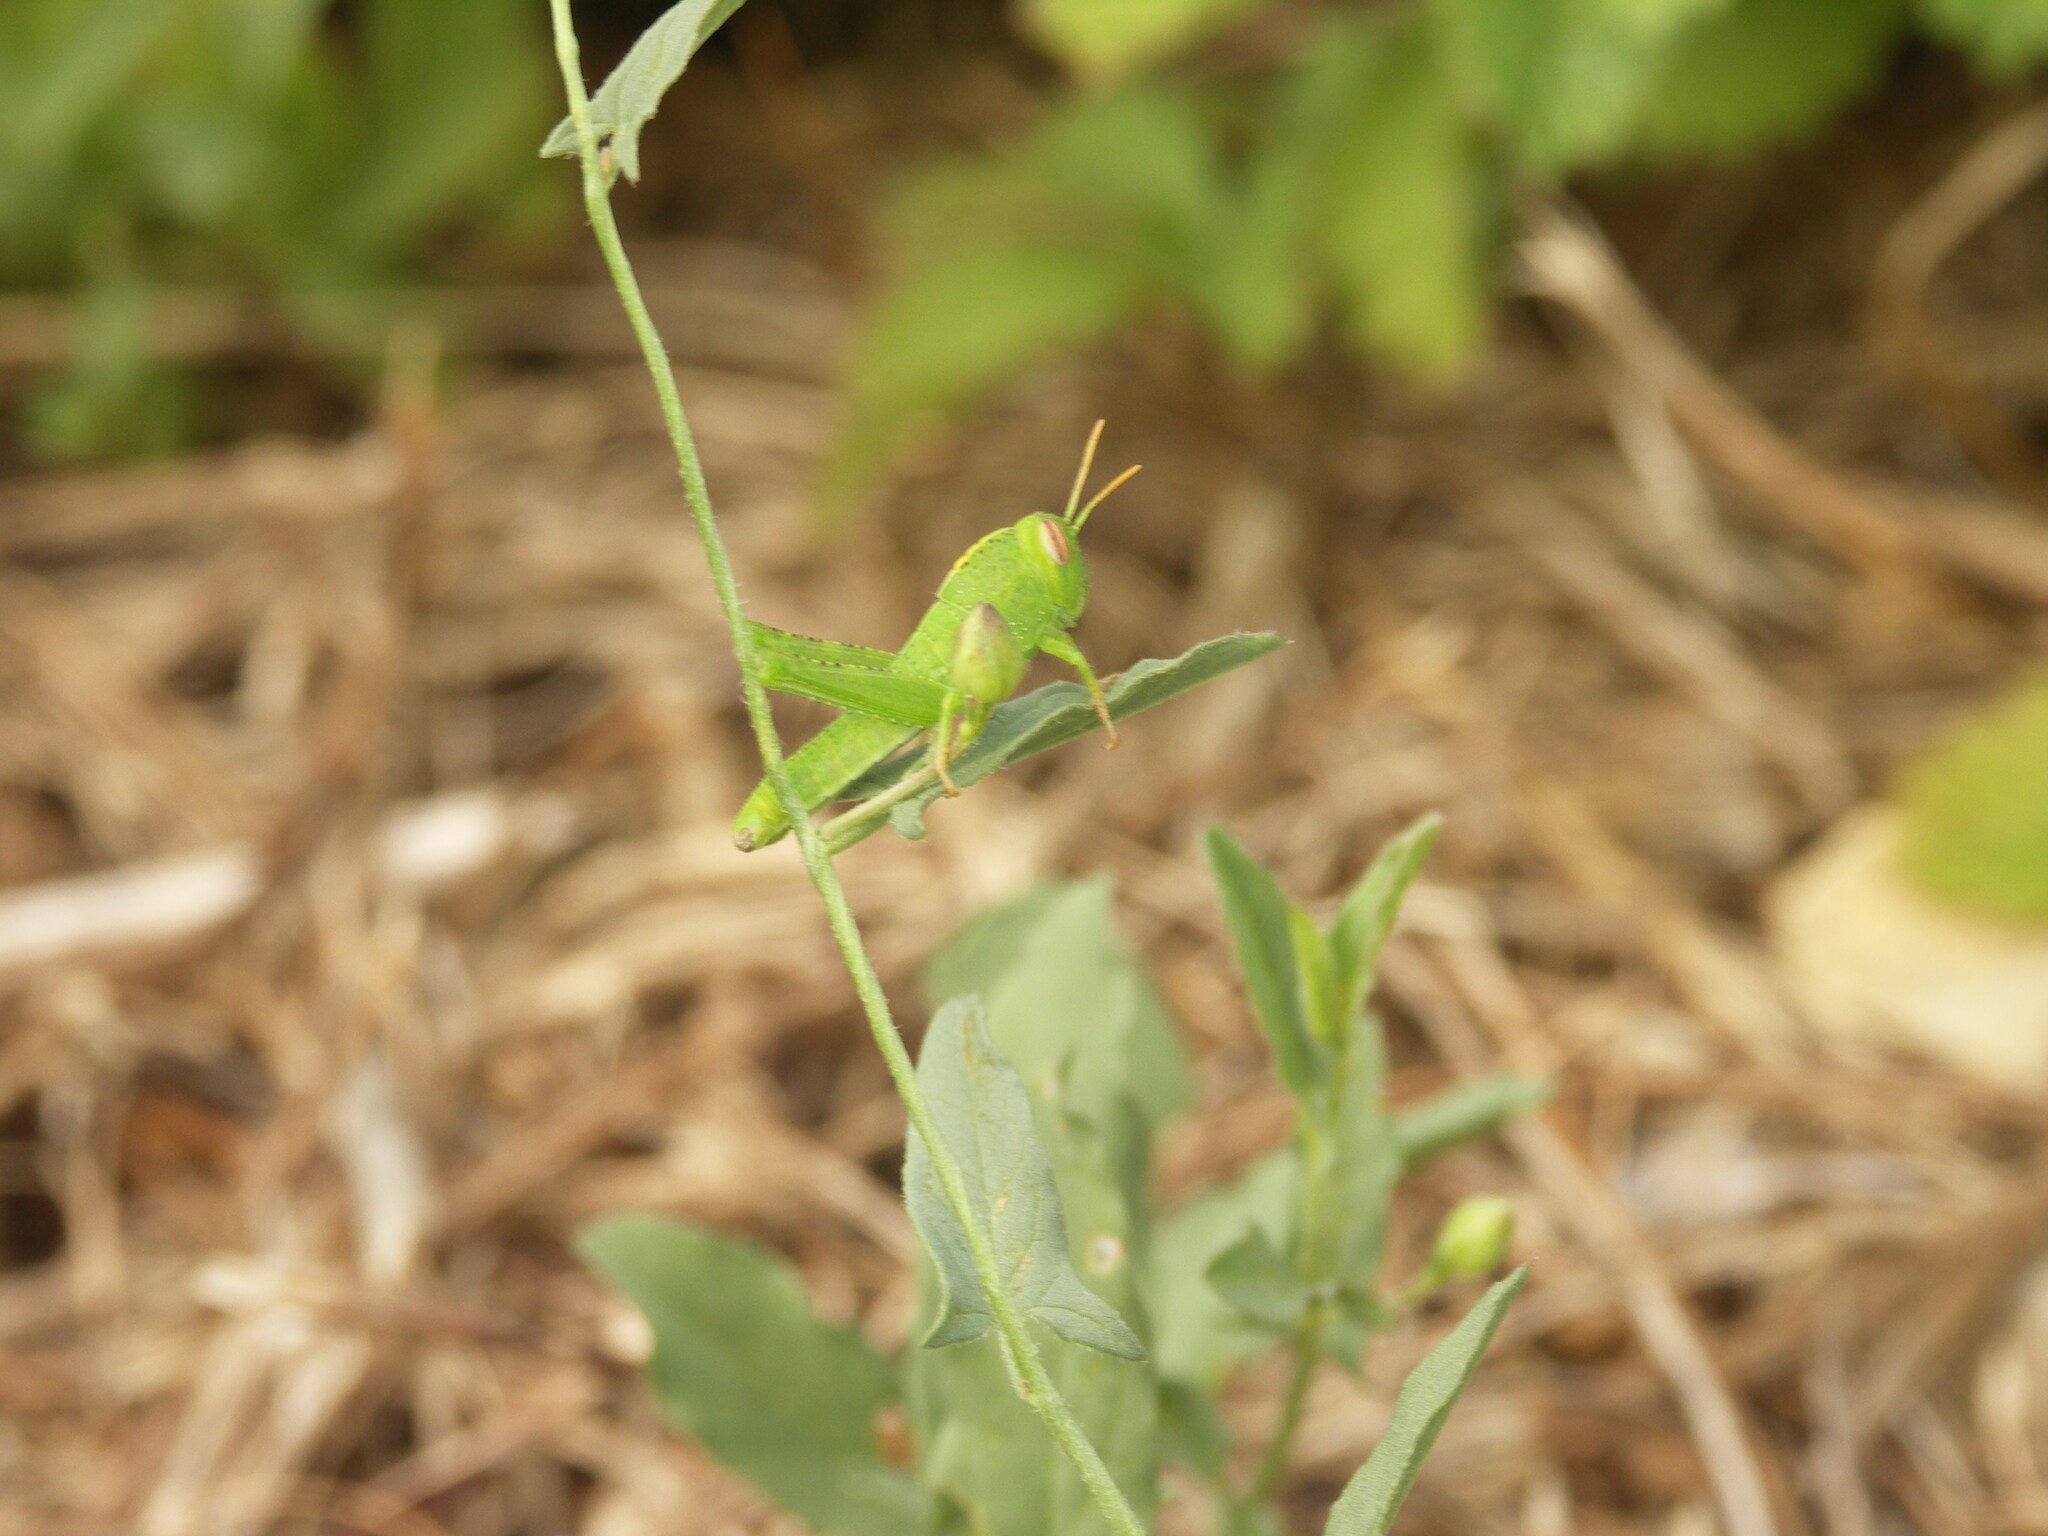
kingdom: Animalia
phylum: Arthropoda
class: Insecta
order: Orthoptera
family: Acrididae
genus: Anacridium
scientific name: Anacridium aegyptium
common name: Egyptian grasshopper
